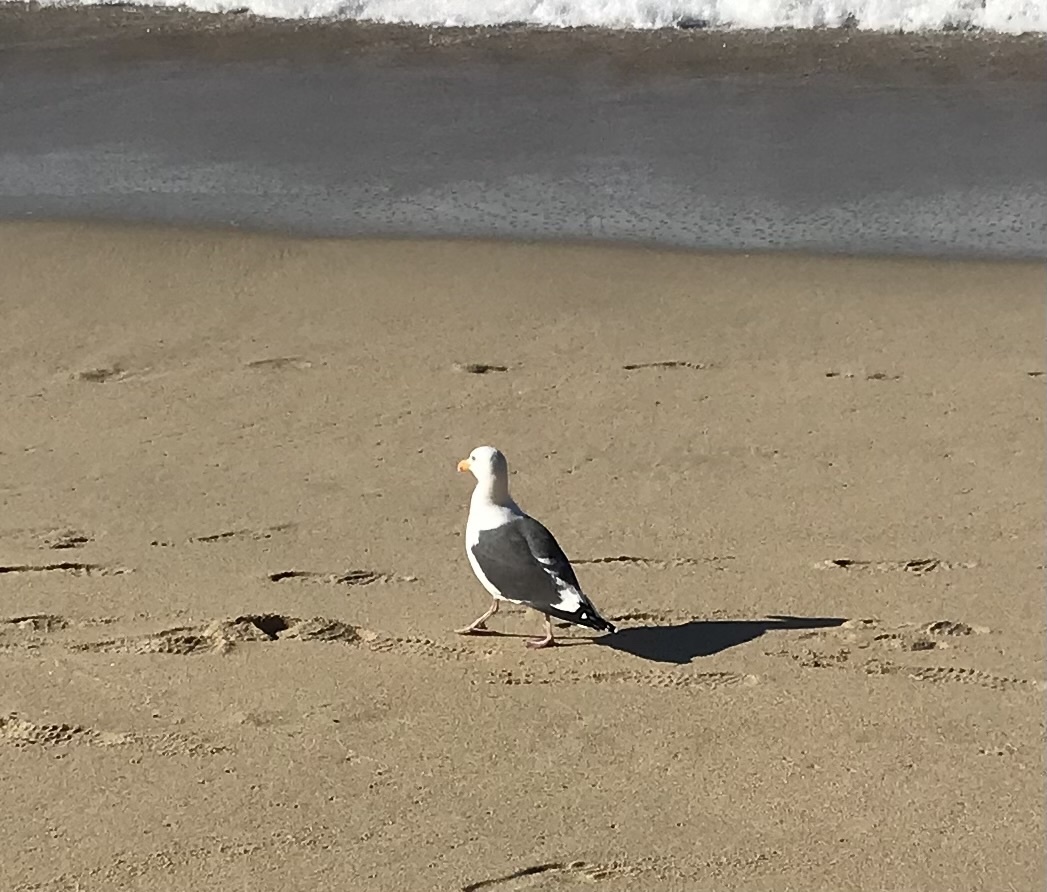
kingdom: Animalia
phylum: Chordata
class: Aves
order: Charadriiformes
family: Laridae
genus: Larus
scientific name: Larus occidentalis
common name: Western gull
